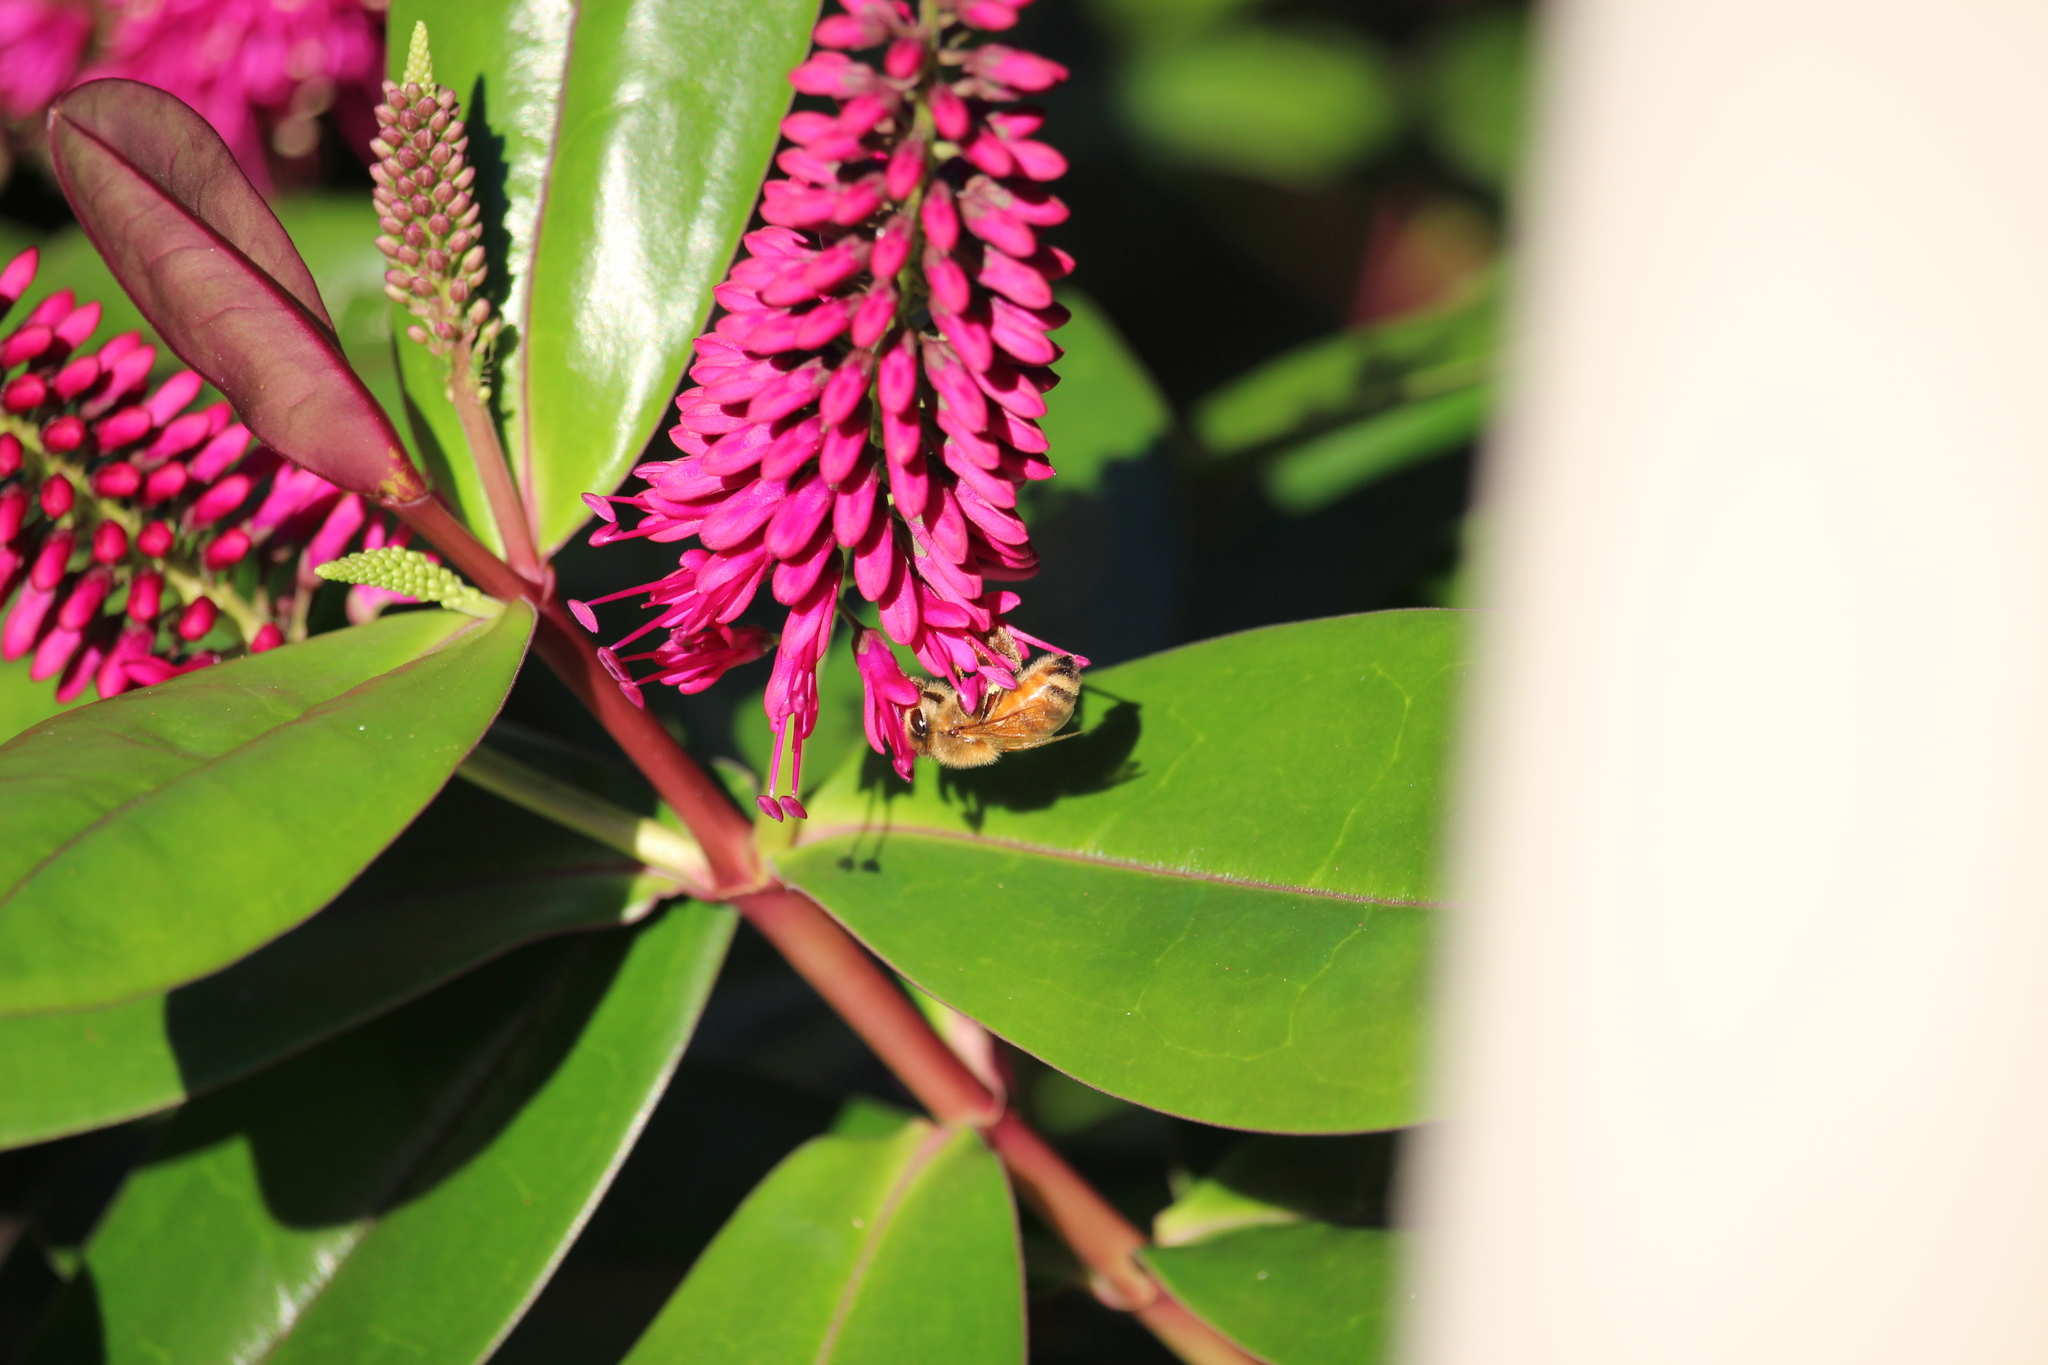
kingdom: Animalia
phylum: Arthropoda
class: Insecta
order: Hymenoptera
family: Apidae
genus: Apis
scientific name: Apis mellifera
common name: Honey bee
